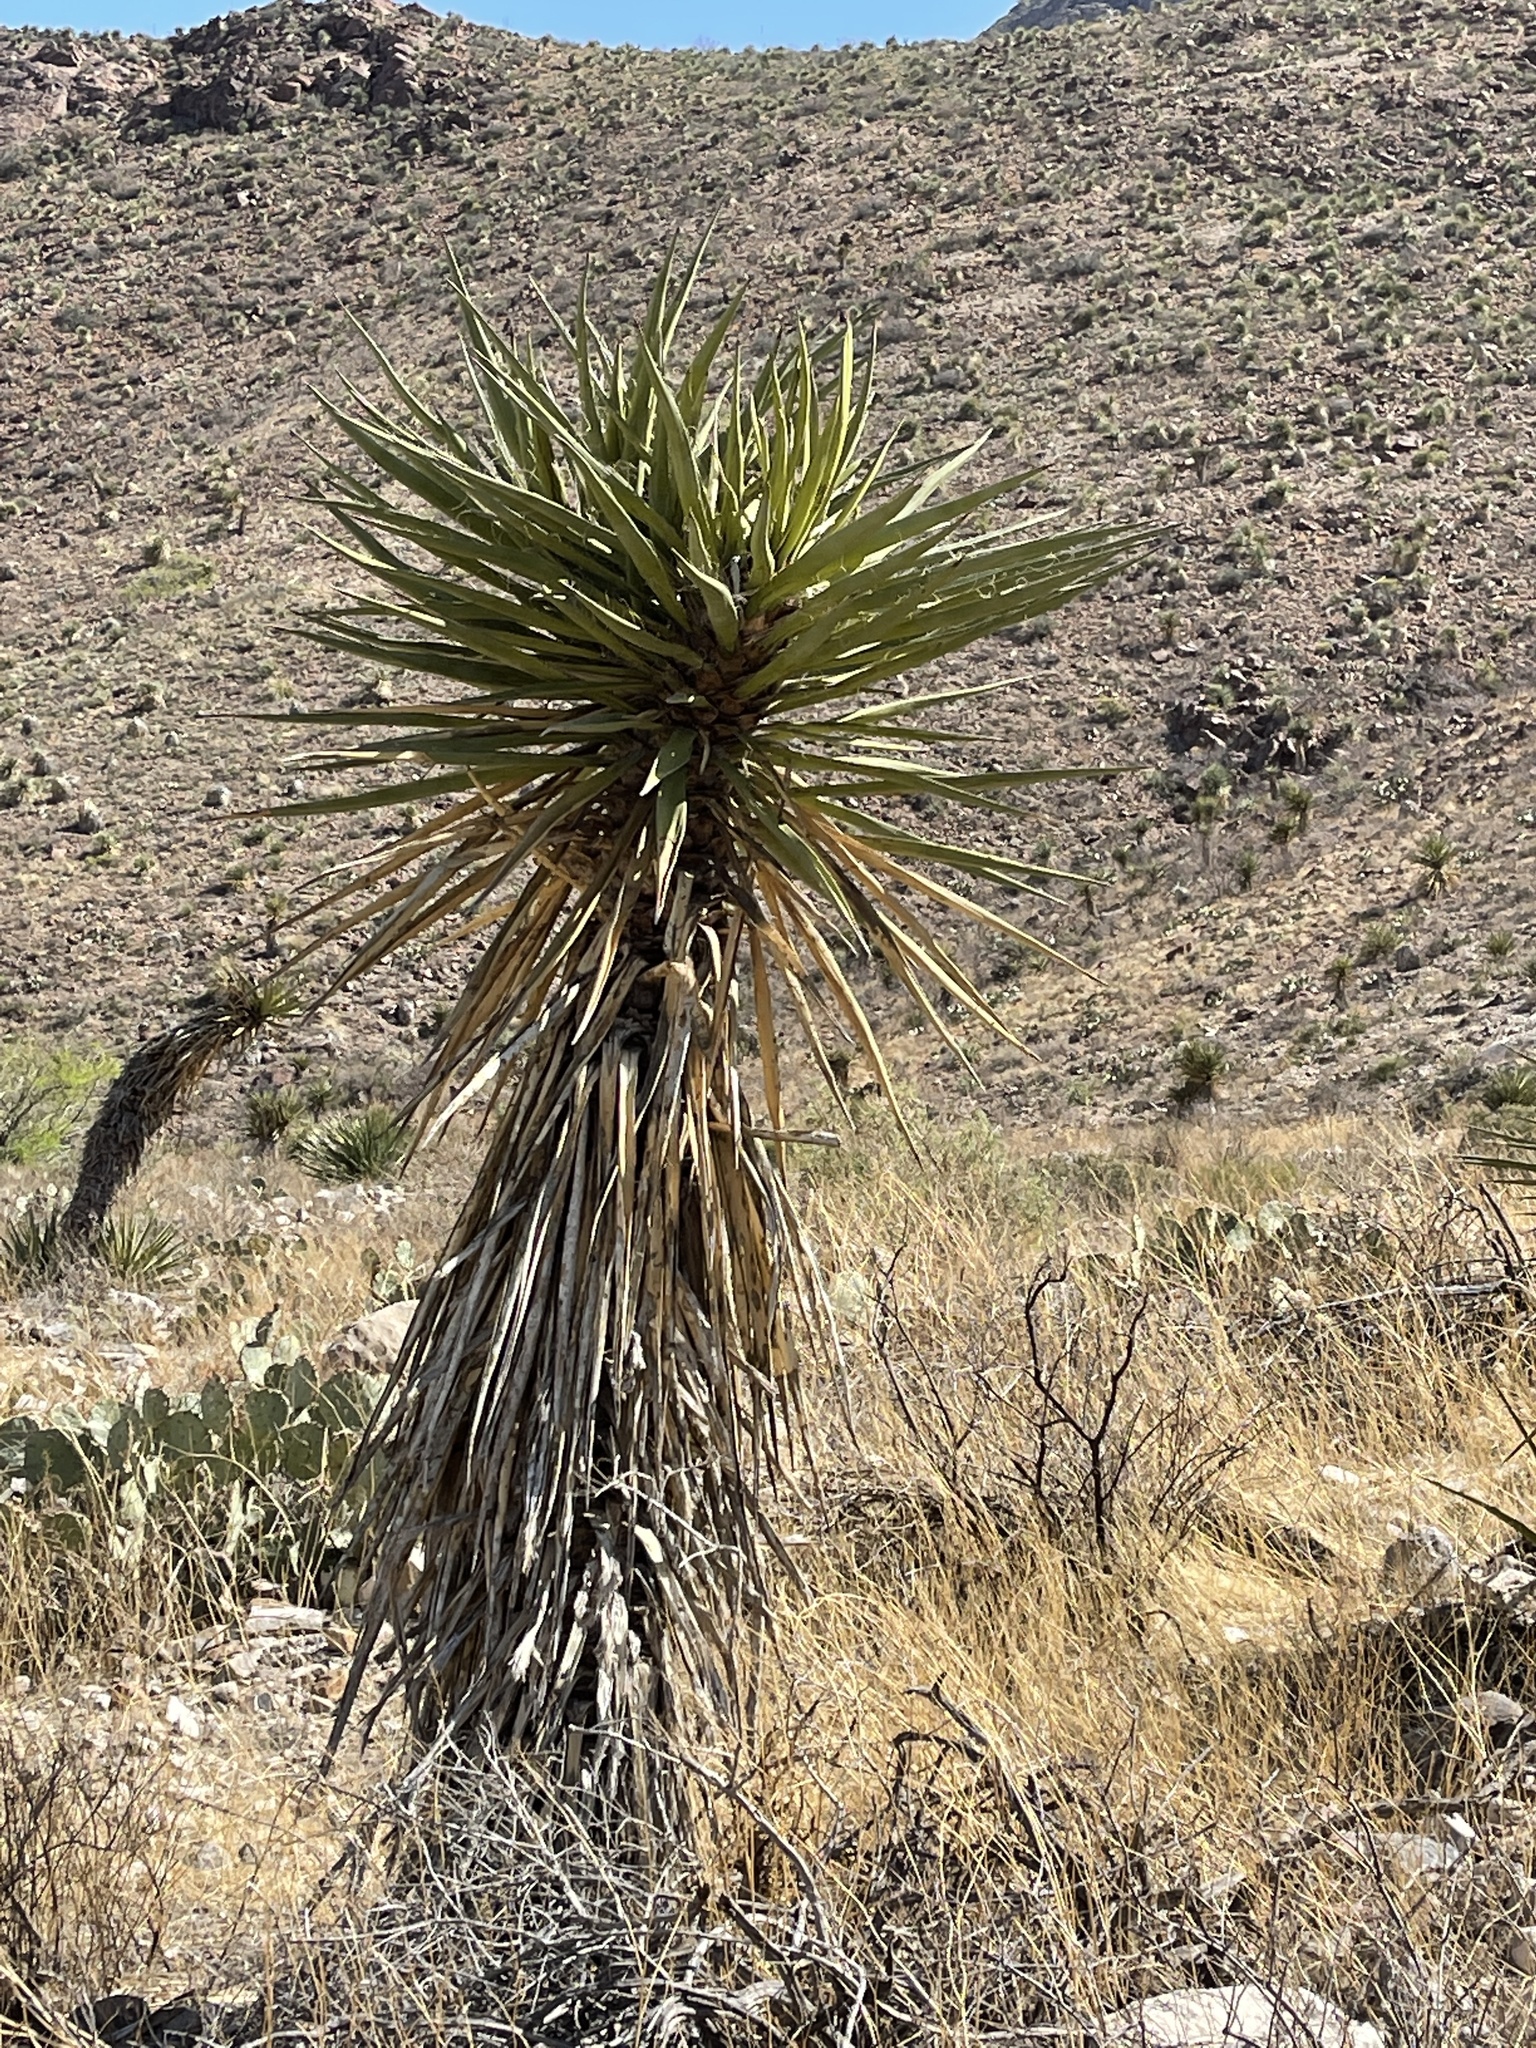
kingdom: Plantae
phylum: Tracheophyta
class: Liliopsida
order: Asparagales
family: Asparagaceae
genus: Yucca
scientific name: Yucca treculiana
